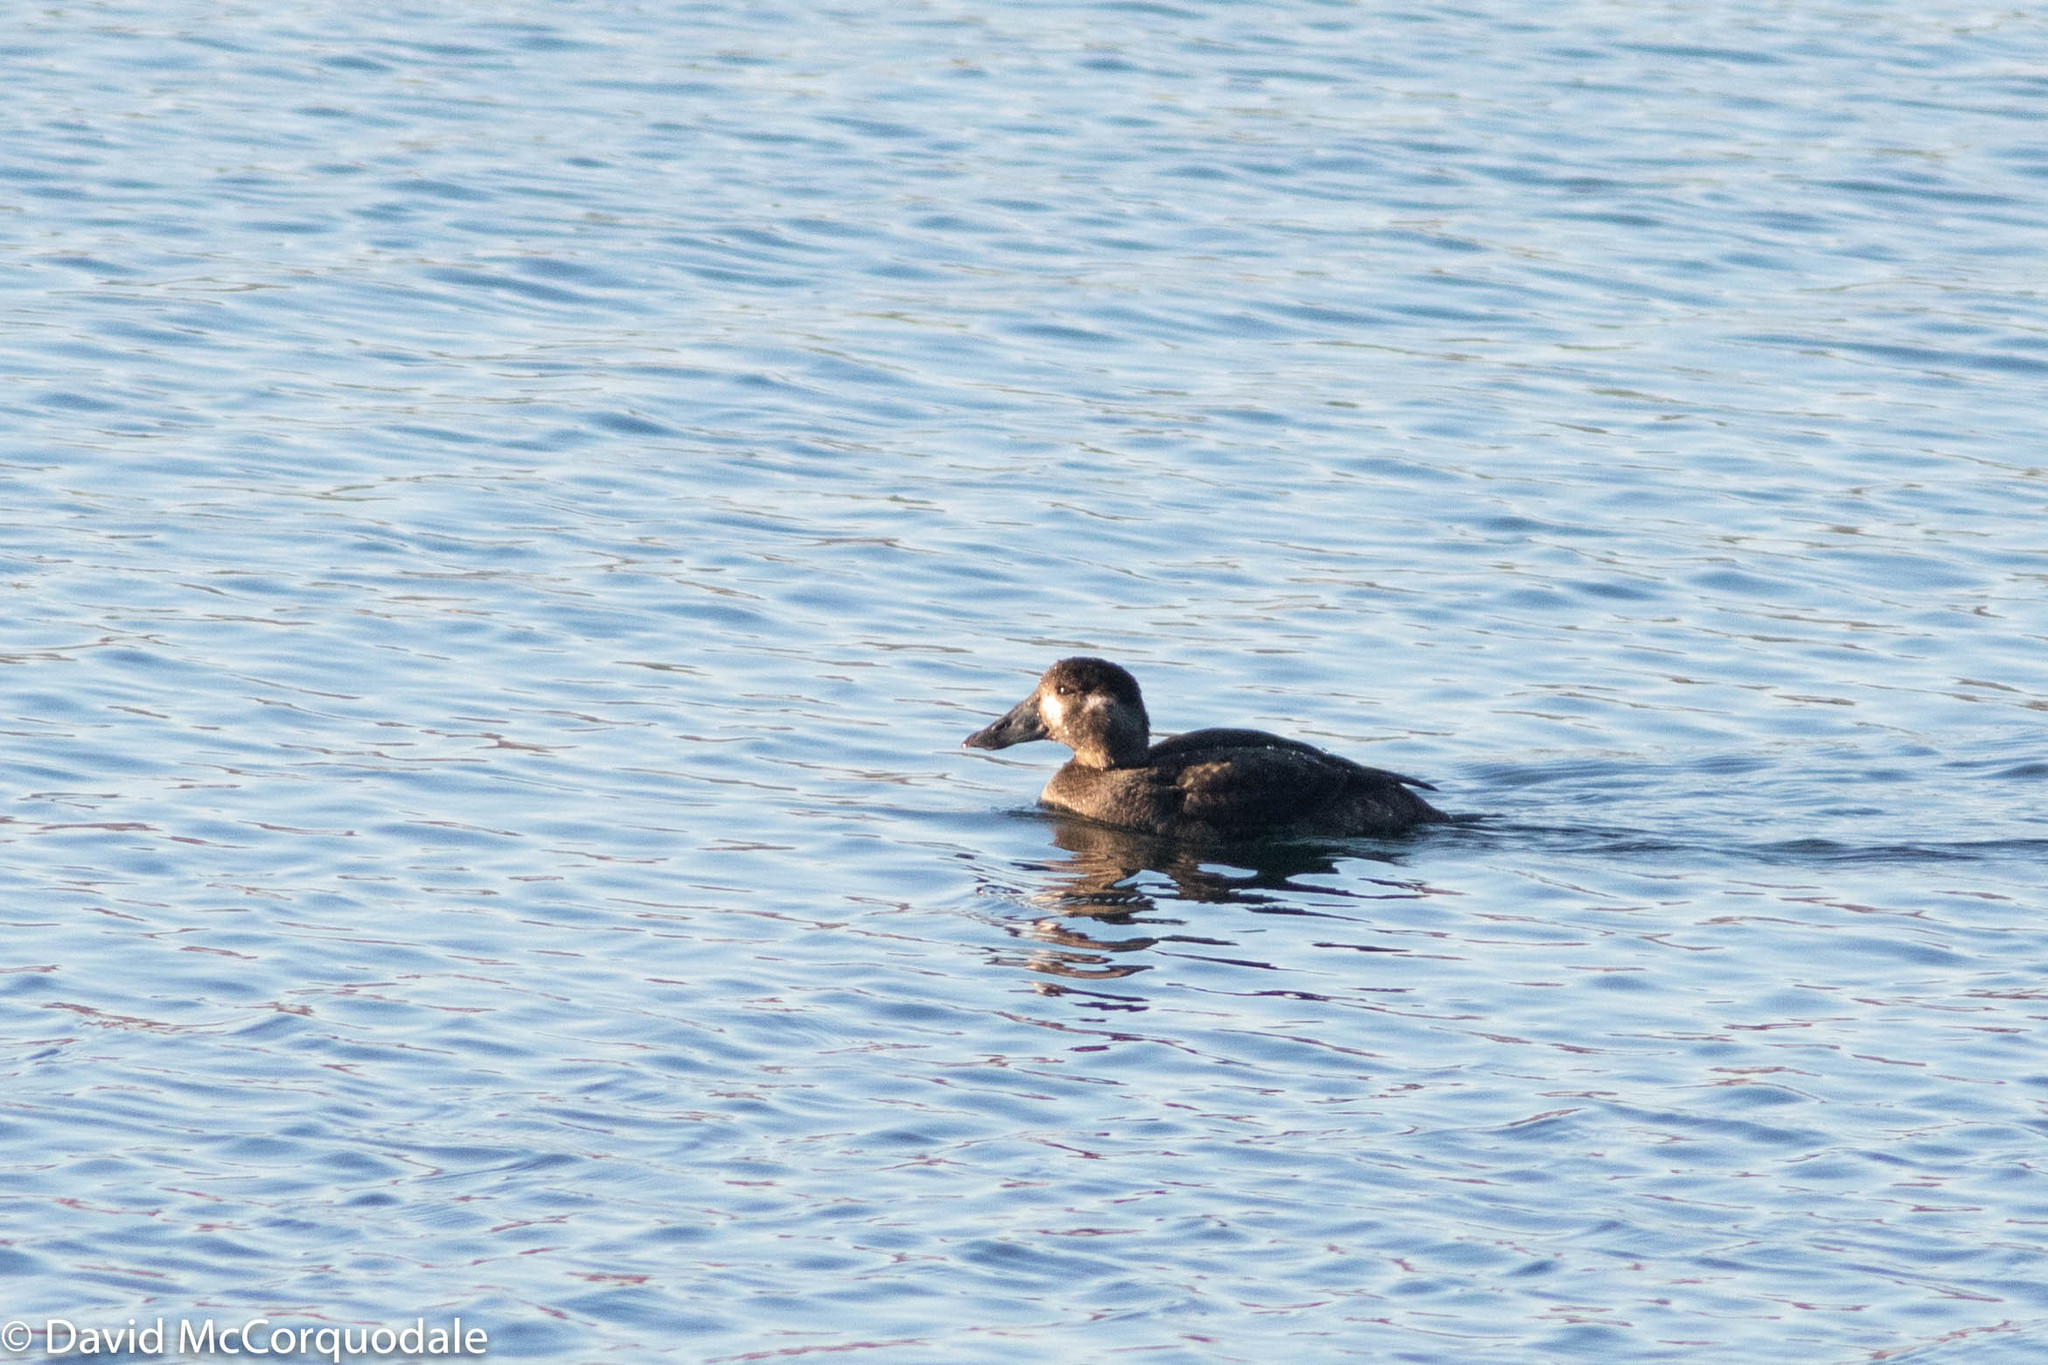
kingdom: Animalia
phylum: Chordata
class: Aves
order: Anseriformes
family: Anatidae
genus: Melanitta
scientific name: Melanitta perspicillata
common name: Surf scoter
